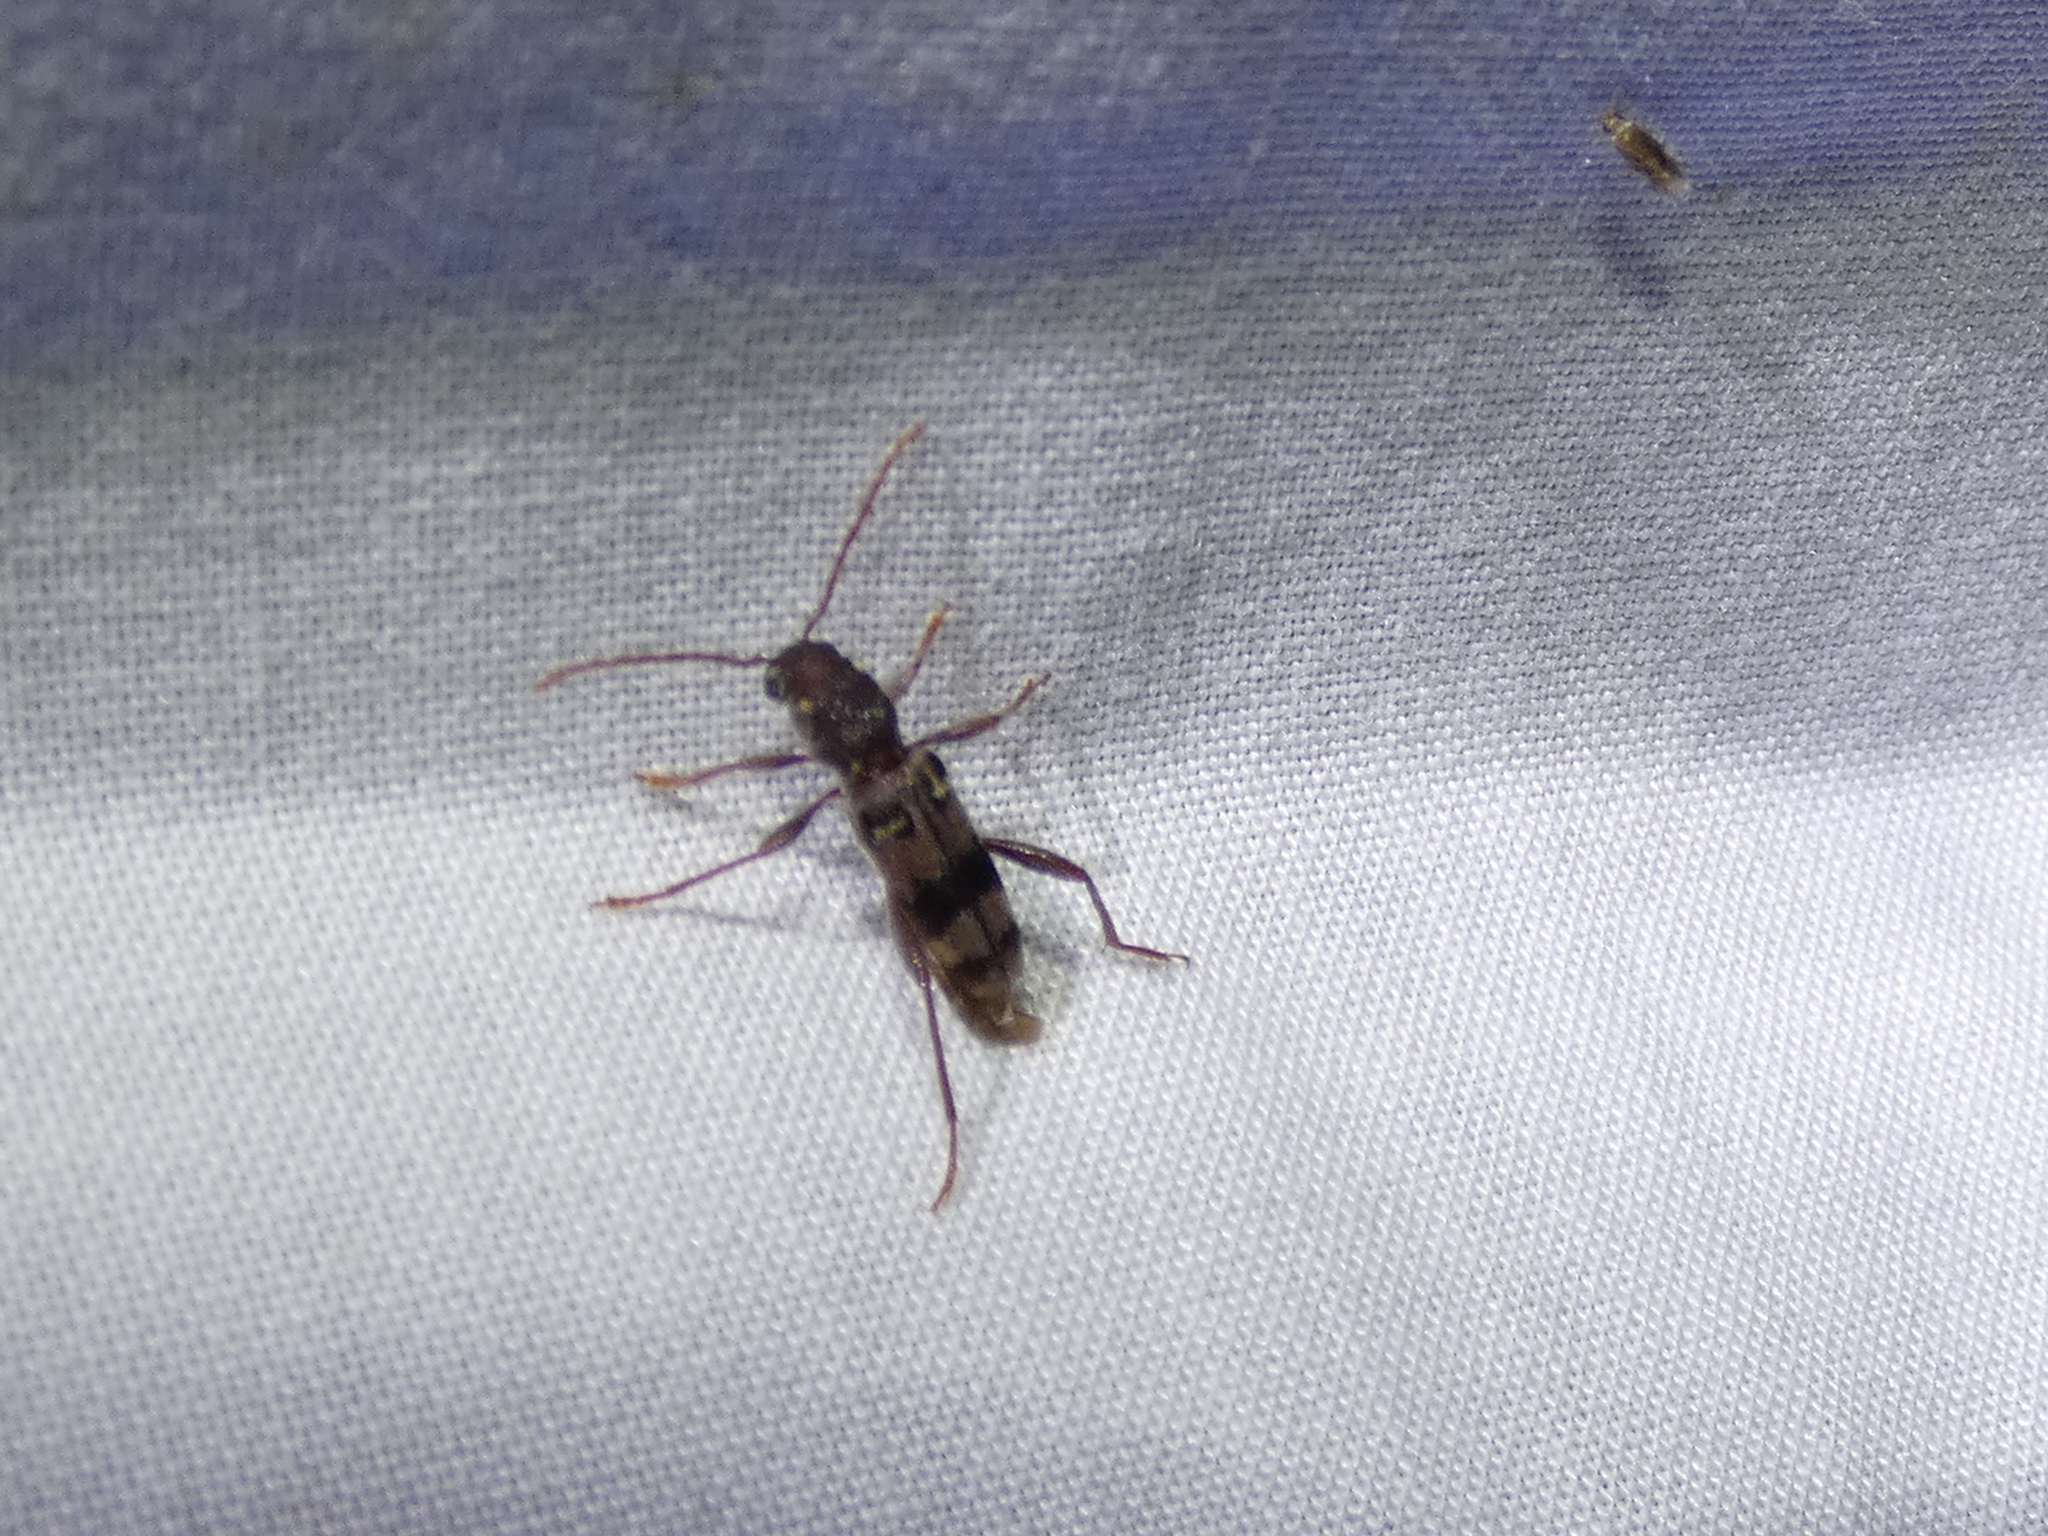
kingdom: Animalia
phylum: Arthropoda
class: Insecta
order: Coleoptera
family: Cerambycidae
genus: Xylotrechus
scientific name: Xylotrechus colonus
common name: Long-horned beetle
